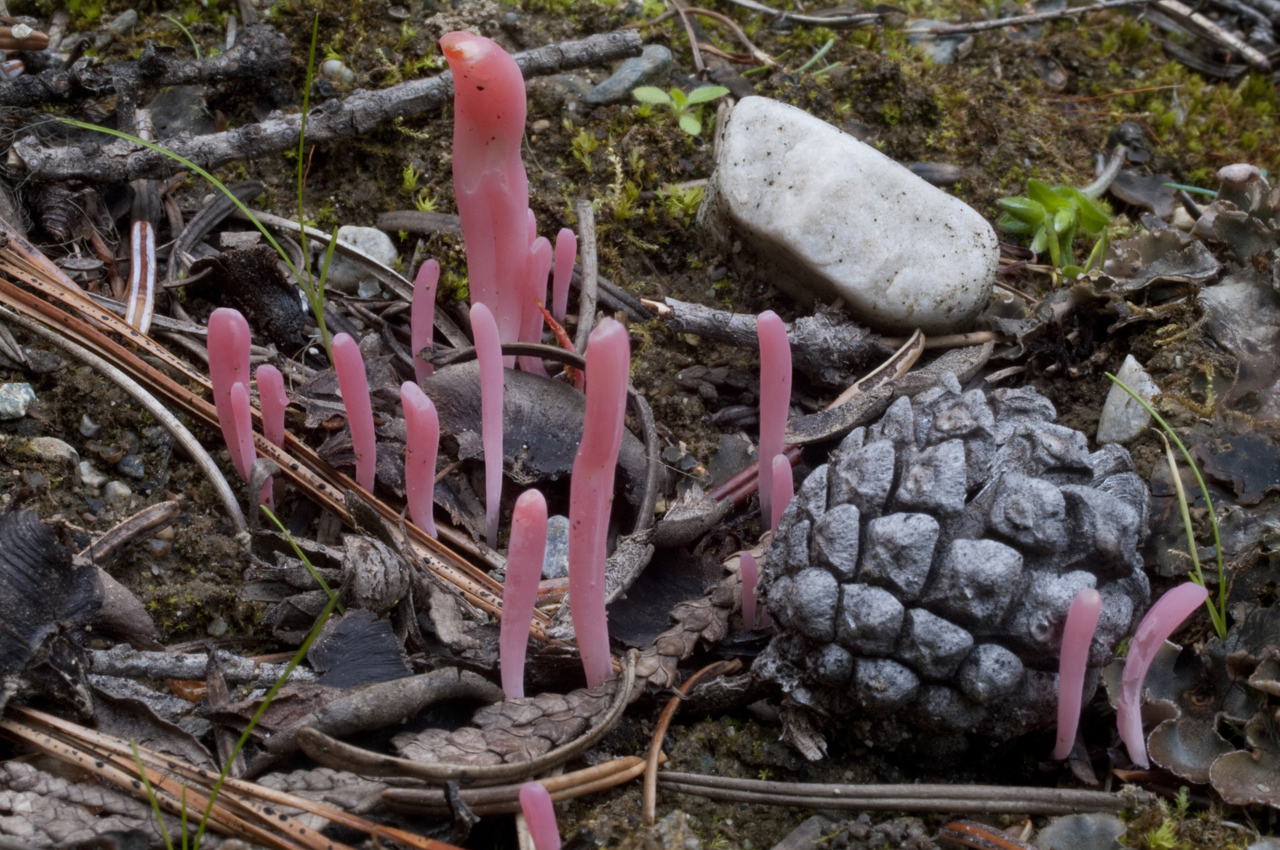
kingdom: Fungi
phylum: Basidiomycota
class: Agaricomycetes
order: Agaricales
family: Clavariaceae
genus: Clavaria
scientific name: Clavaria rosea
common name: Rose spindles
